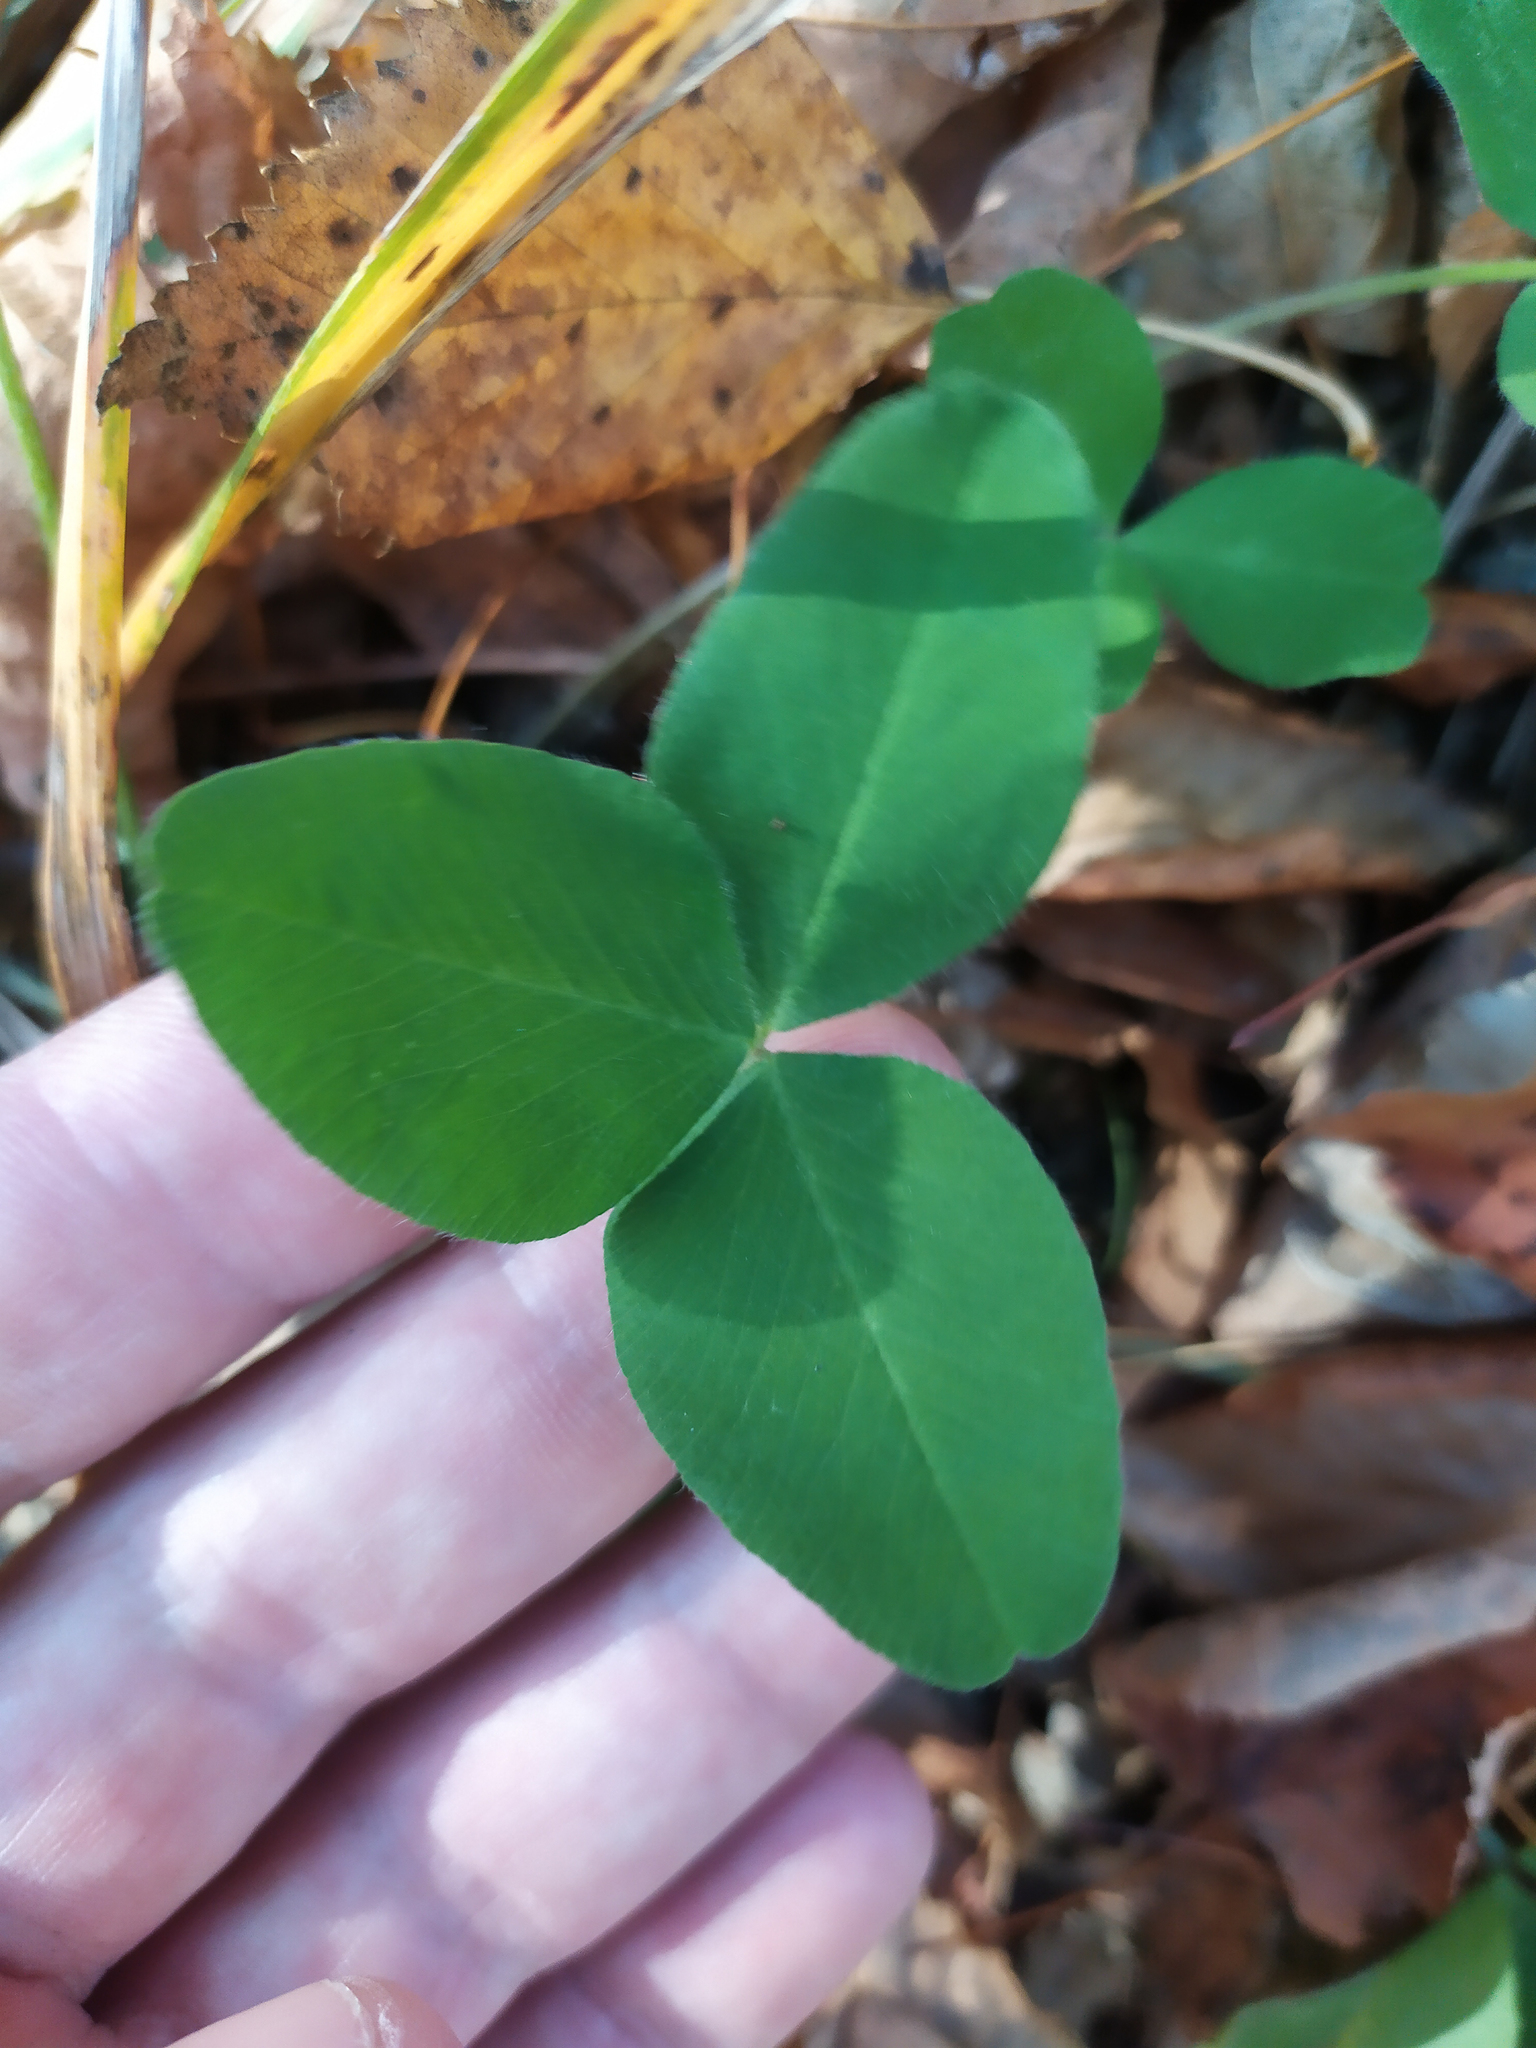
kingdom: Plantae
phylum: Tracheophyta
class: Magnoliopsida
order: Fabales
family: Fabaceae
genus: Trifolium
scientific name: Trifolium pratense
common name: Red clover
